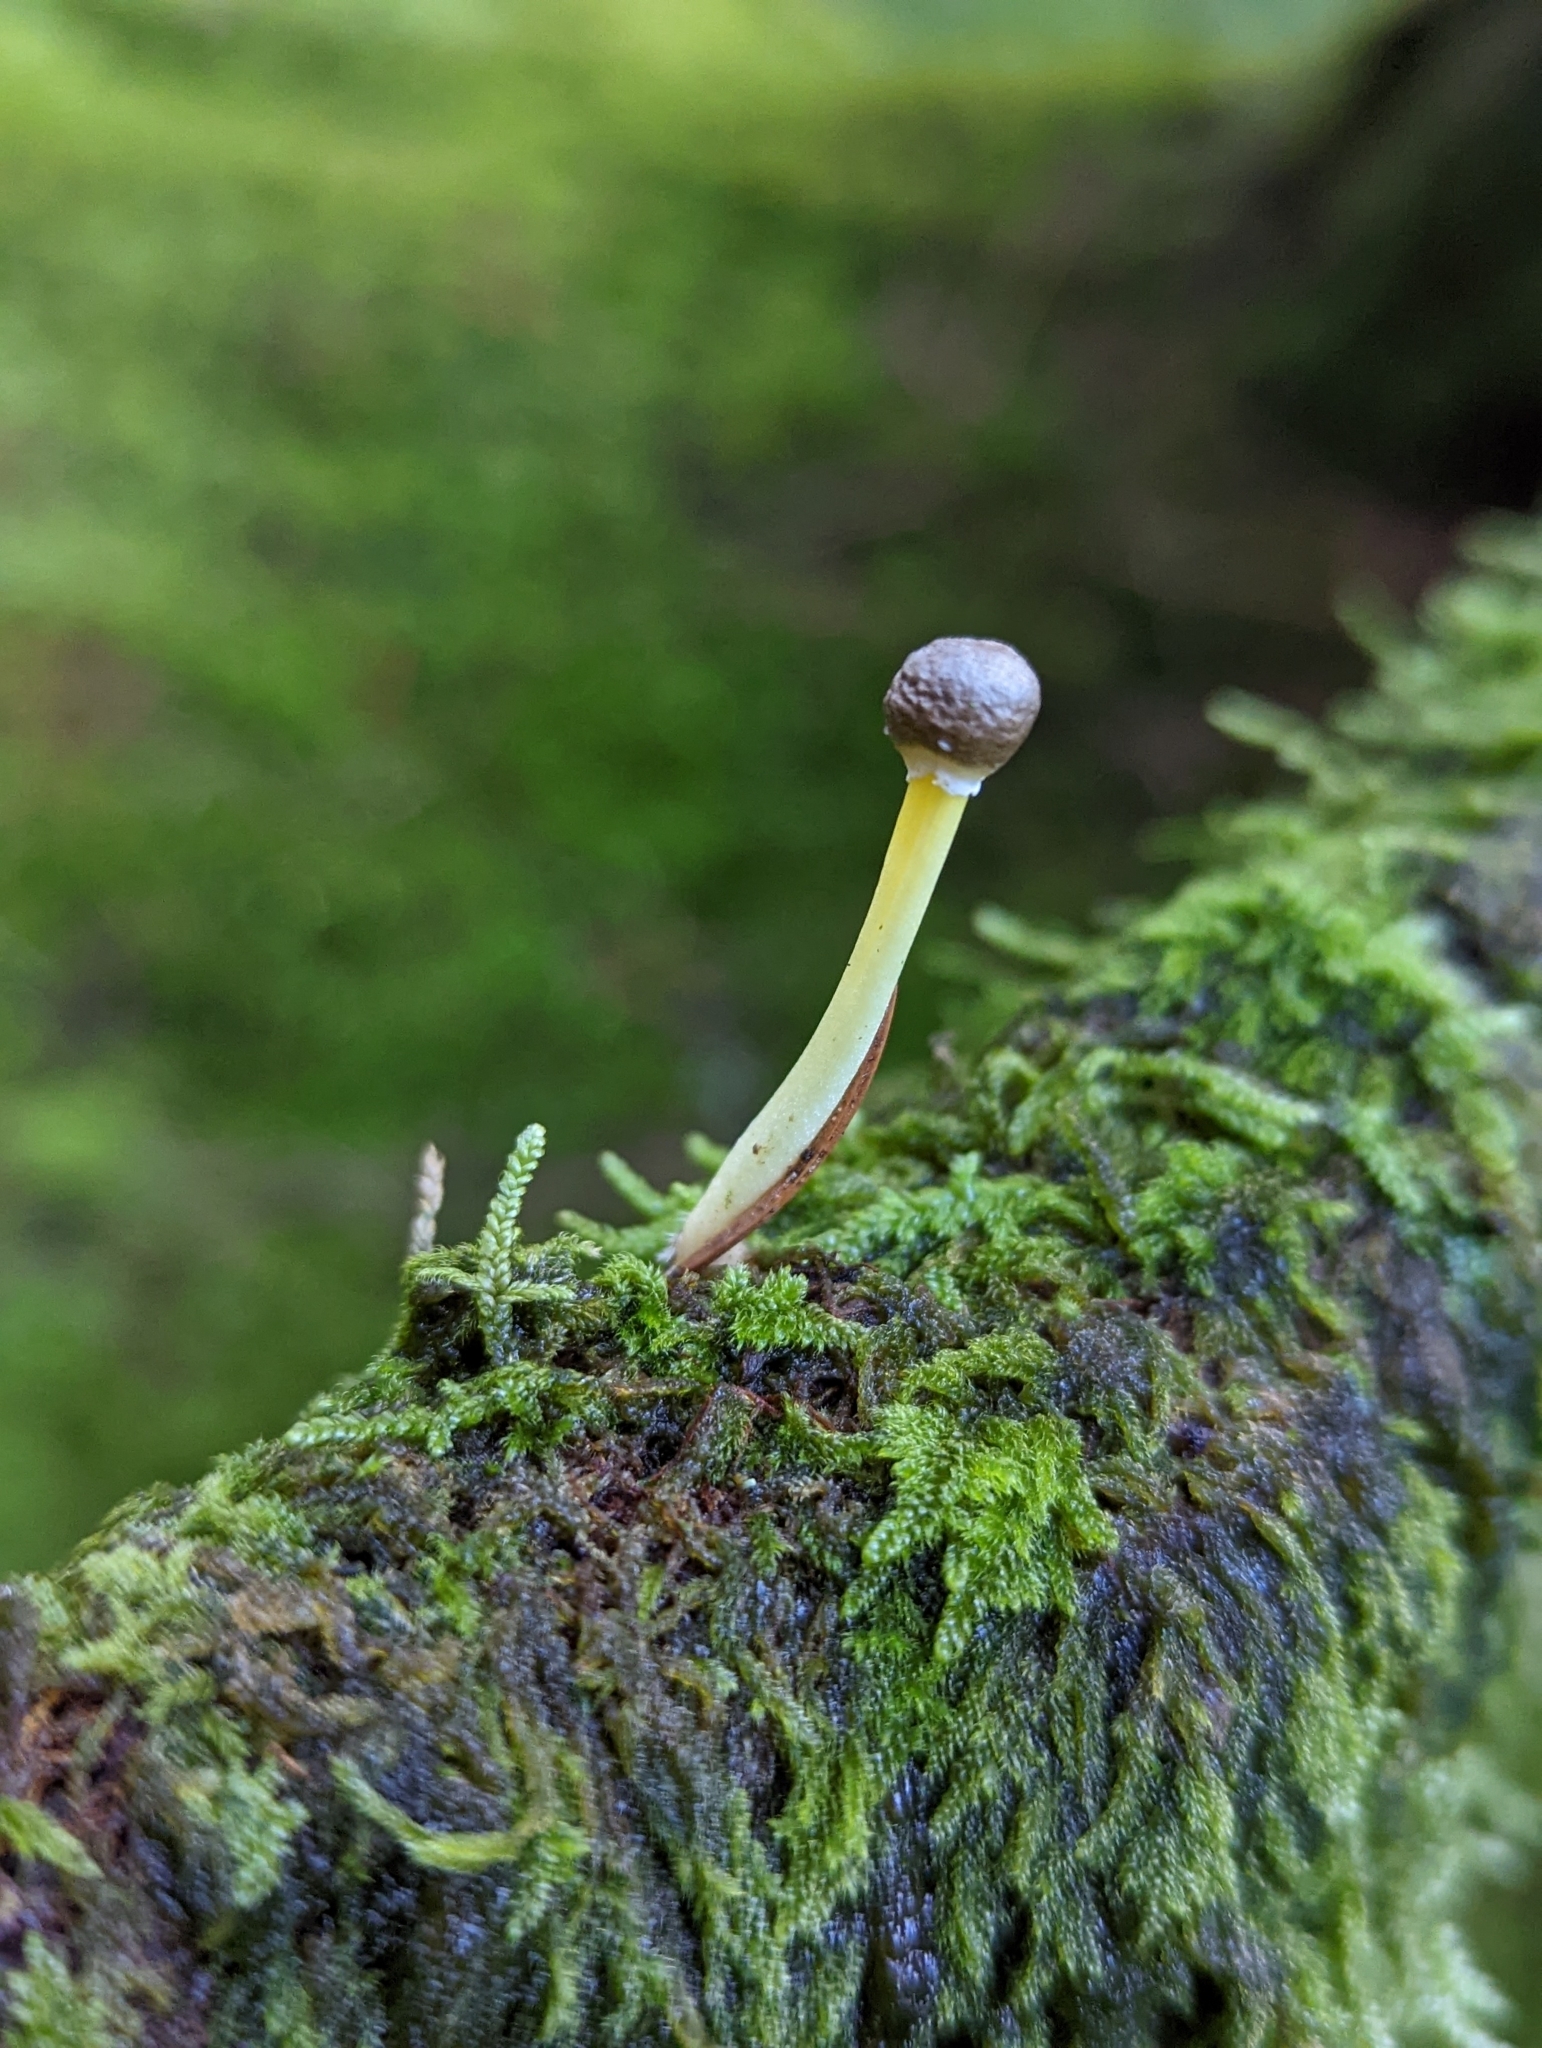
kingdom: Fungi
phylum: Basidiomycota
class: Agaricomycetes
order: Agaricales
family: Mycenaceae
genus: Mycena
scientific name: Mycena epipterygia
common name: Yellowleg bonnet
